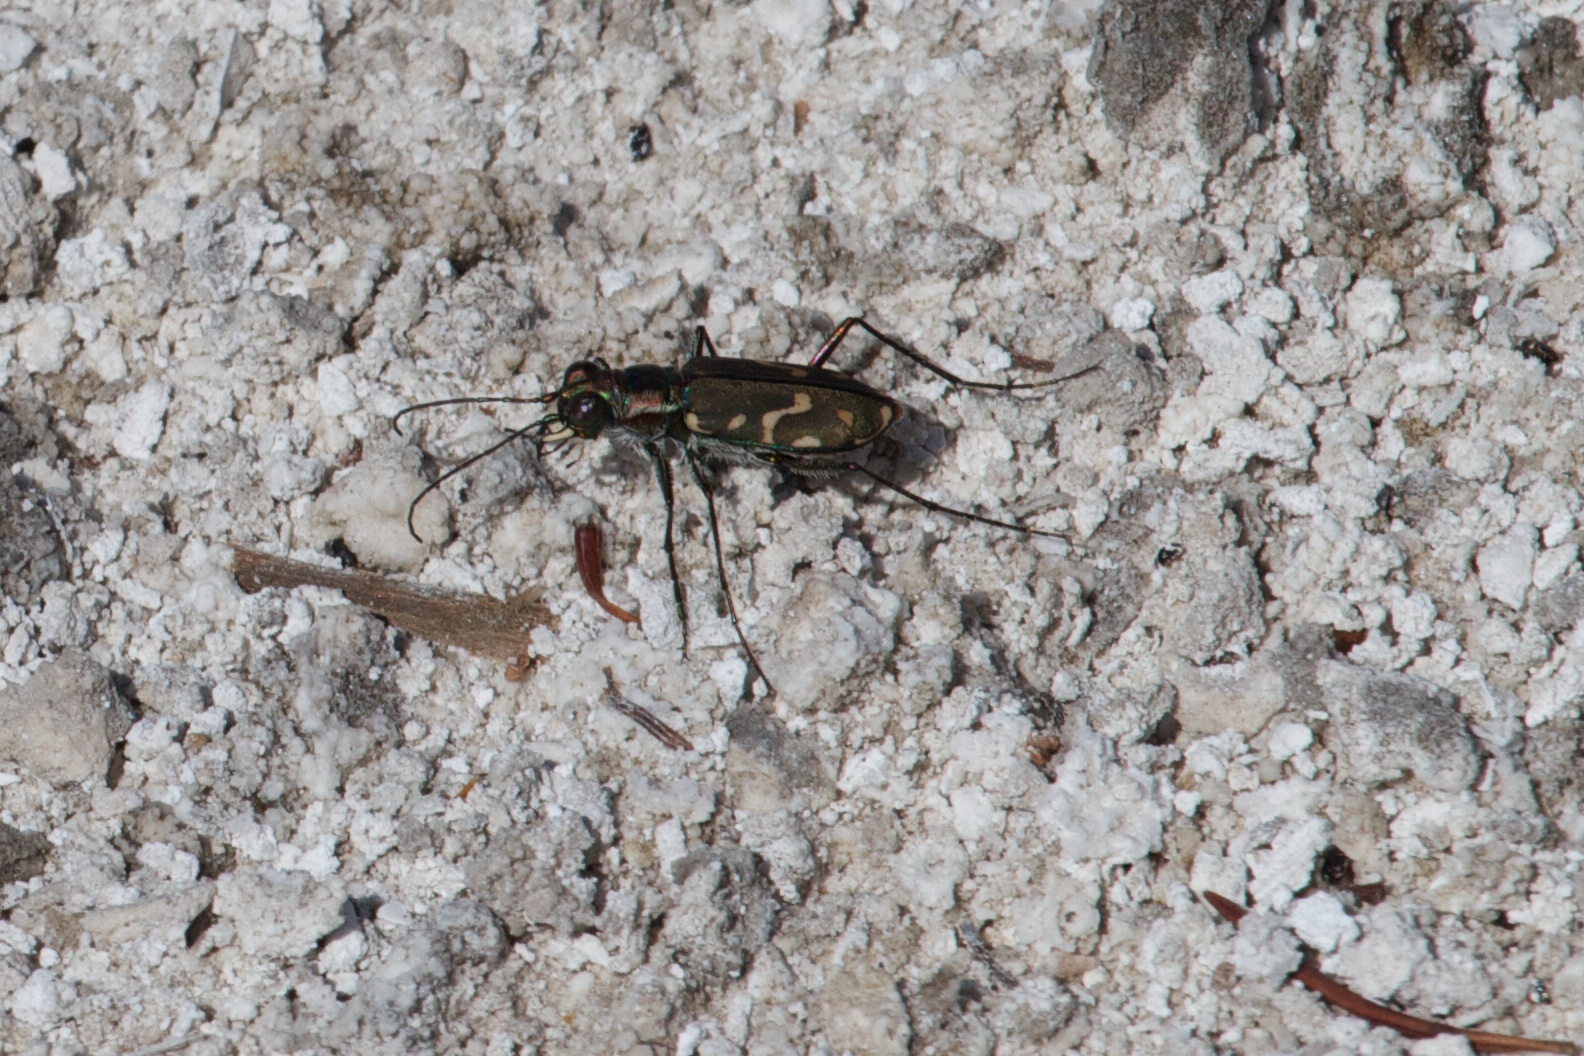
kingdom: Animalia
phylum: Arthropoda
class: Insecta
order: Coleoptera
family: Carabidae
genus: Cicindela
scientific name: Cicindela hemorrhagica
